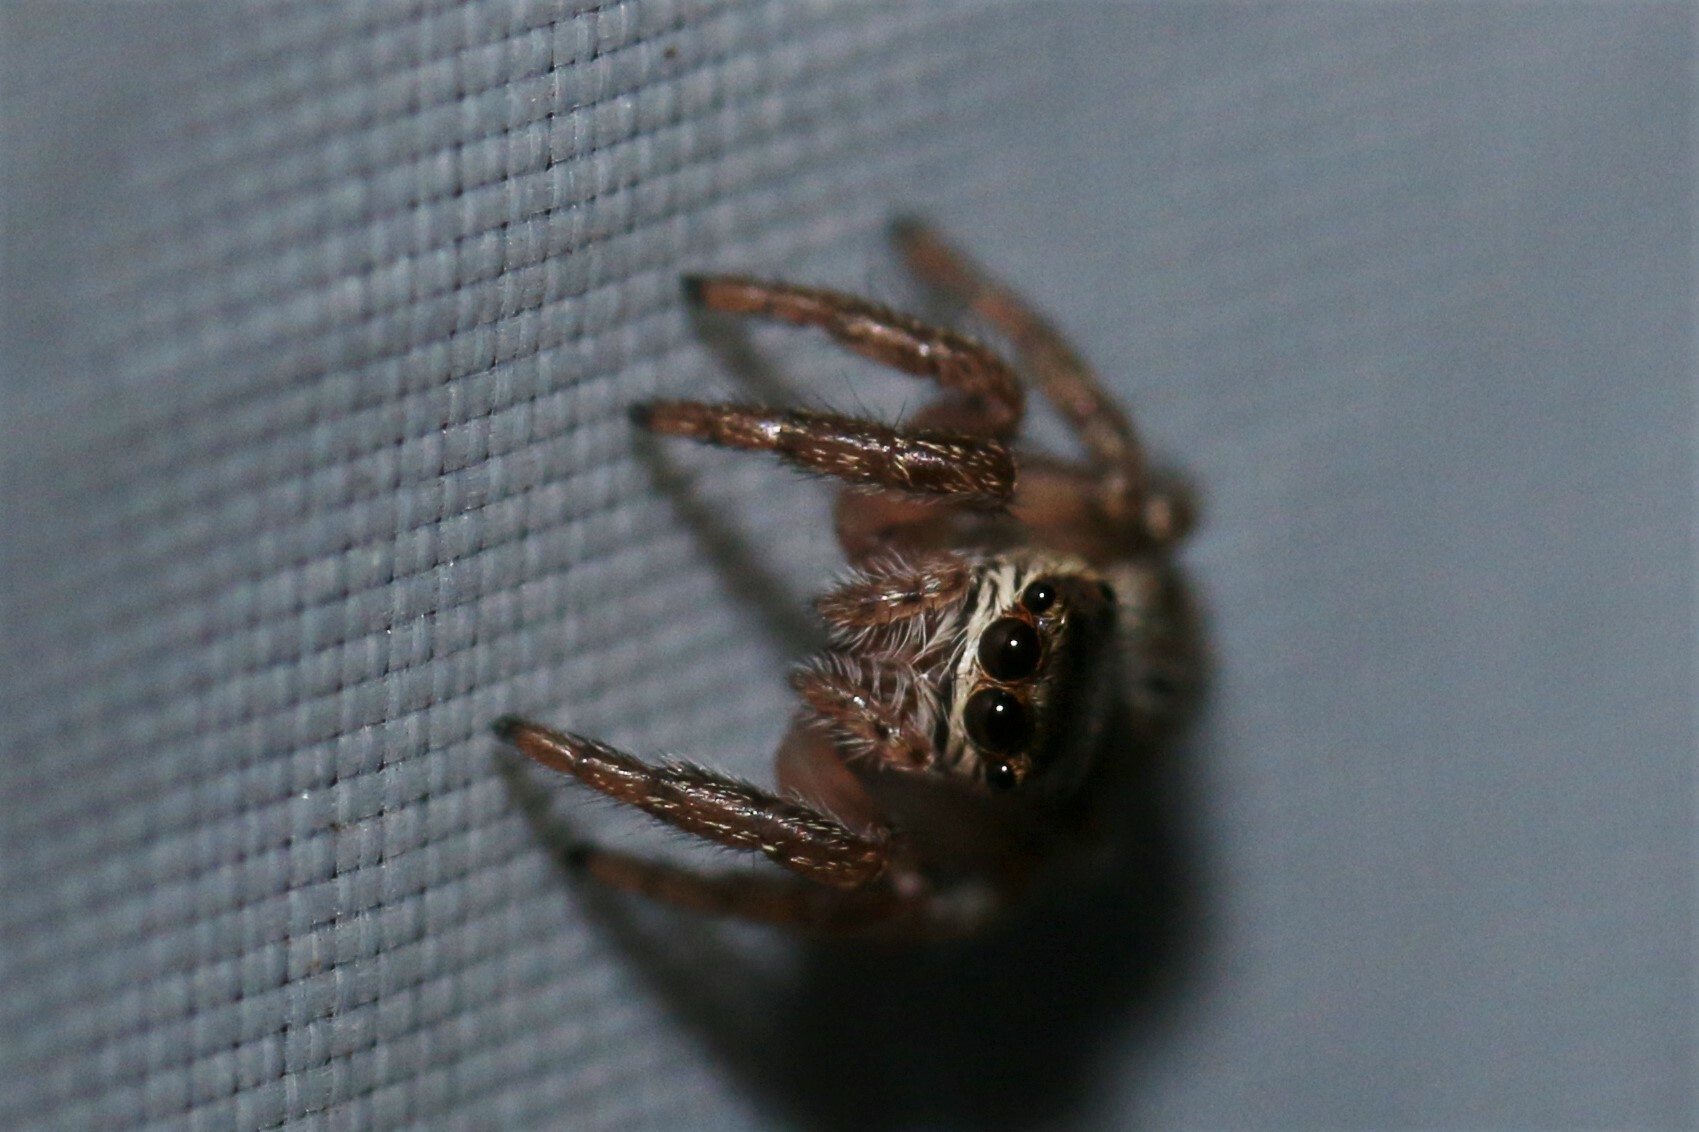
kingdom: Animalia
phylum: Arthropoda
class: Arachnida
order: Araneae
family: Salticidae
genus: Evarcha
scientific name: Evarcha
